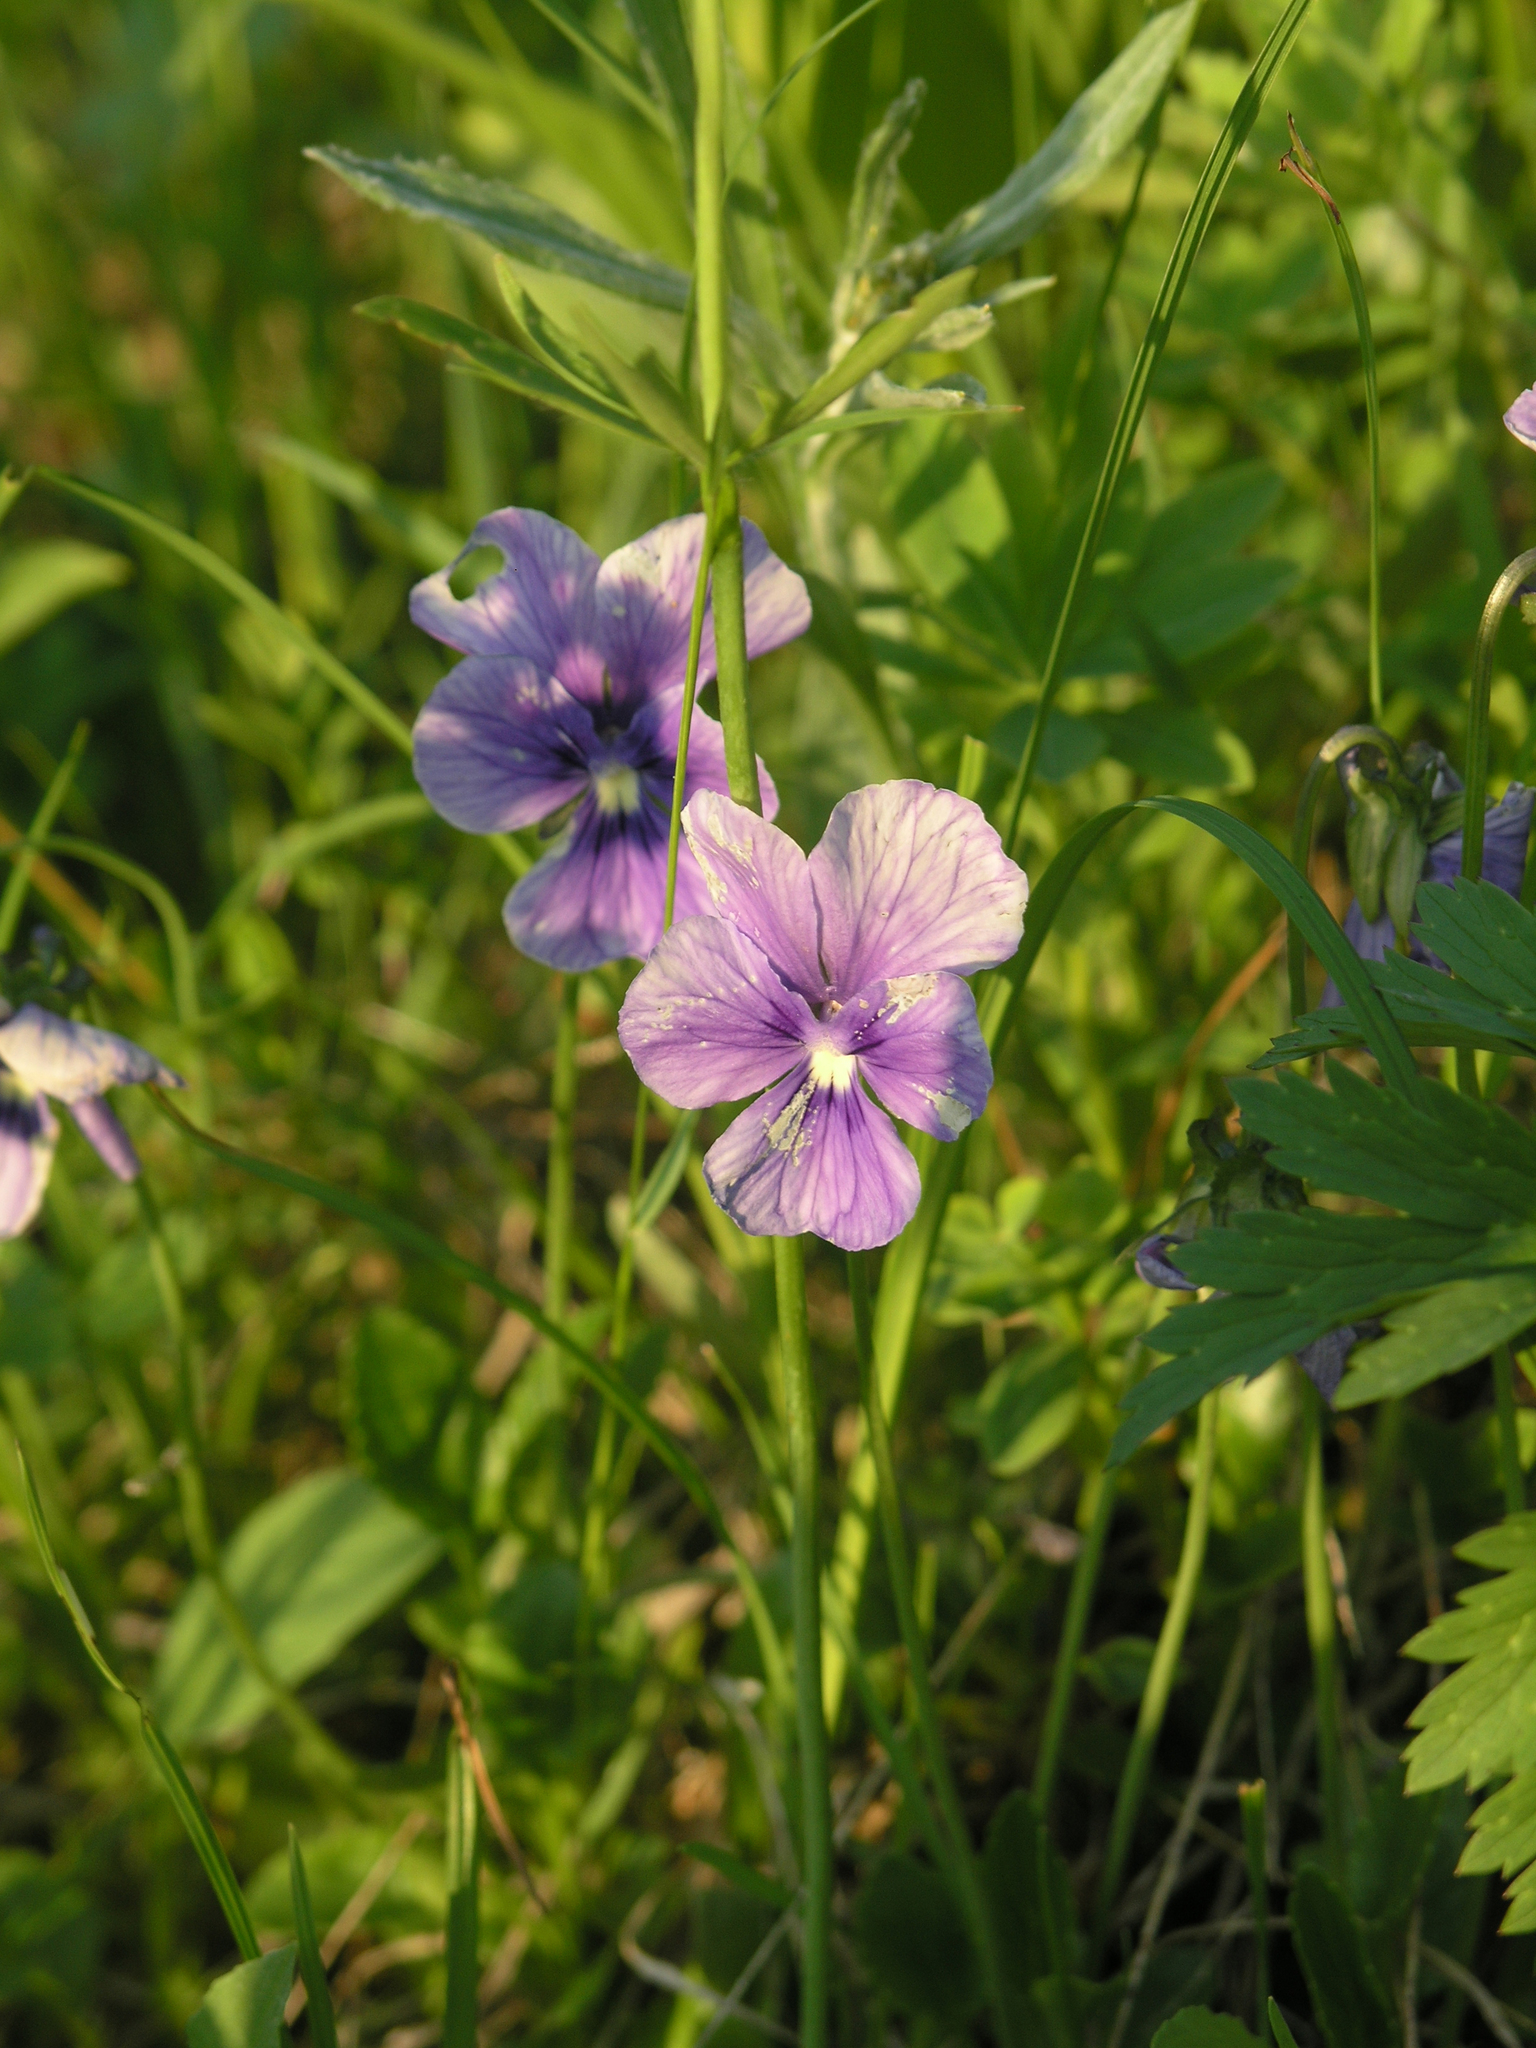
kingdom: Plantae
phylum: Tracheophyta
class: Magnoliopsida
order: Malpighiales
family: Violaceae
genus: Viola
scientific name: Viola altaica
